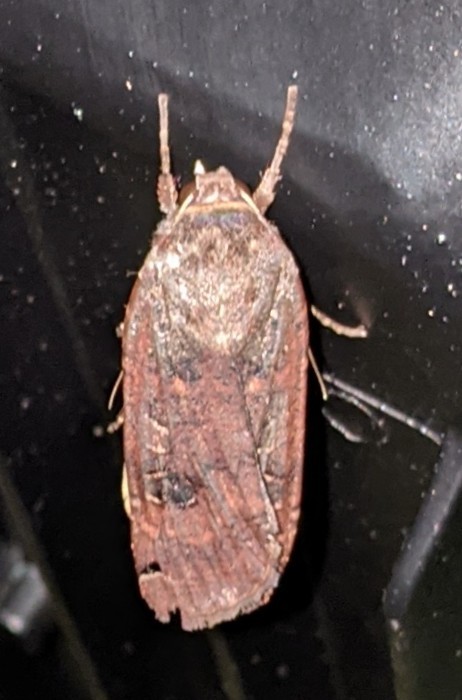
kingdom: Animalia
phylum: Arthropoda
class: Insecta
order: Lepidoptera
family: Noctuidae
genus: Noctua
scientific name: Noctua pronuba
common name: Large yellow underwing
